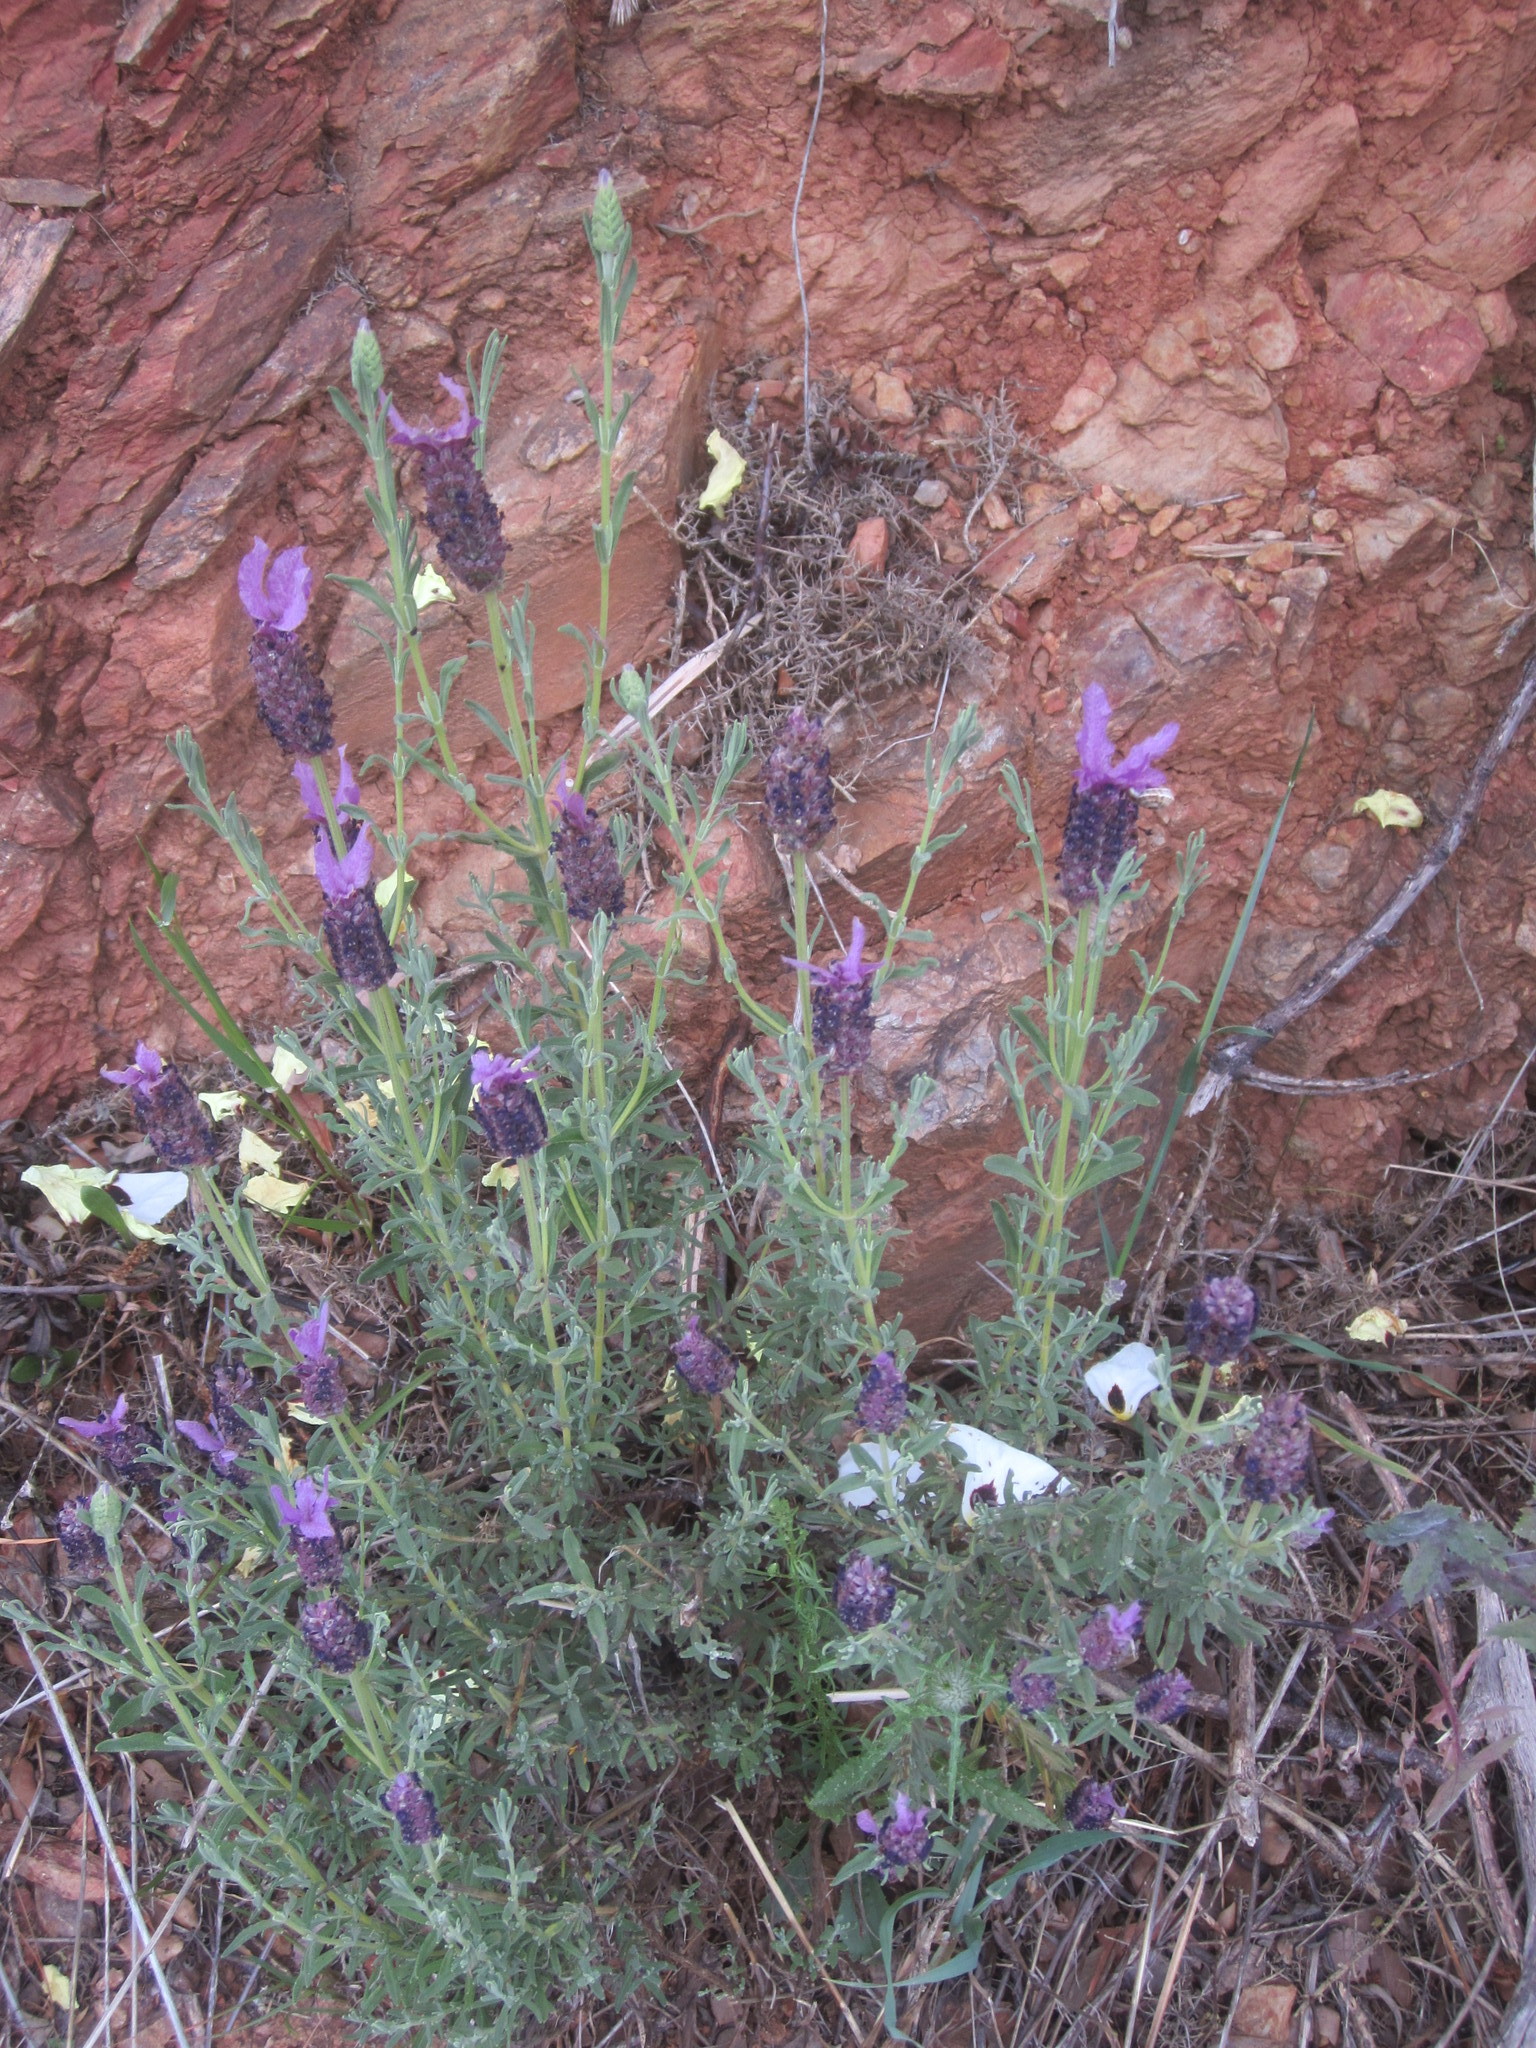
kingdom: Plantae
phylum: Tracheophyta
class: Magnoliopsida
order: Lamiales
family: Lamiaceae
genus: Lavandula
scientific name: Lavandula stoechas
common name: French lavender
